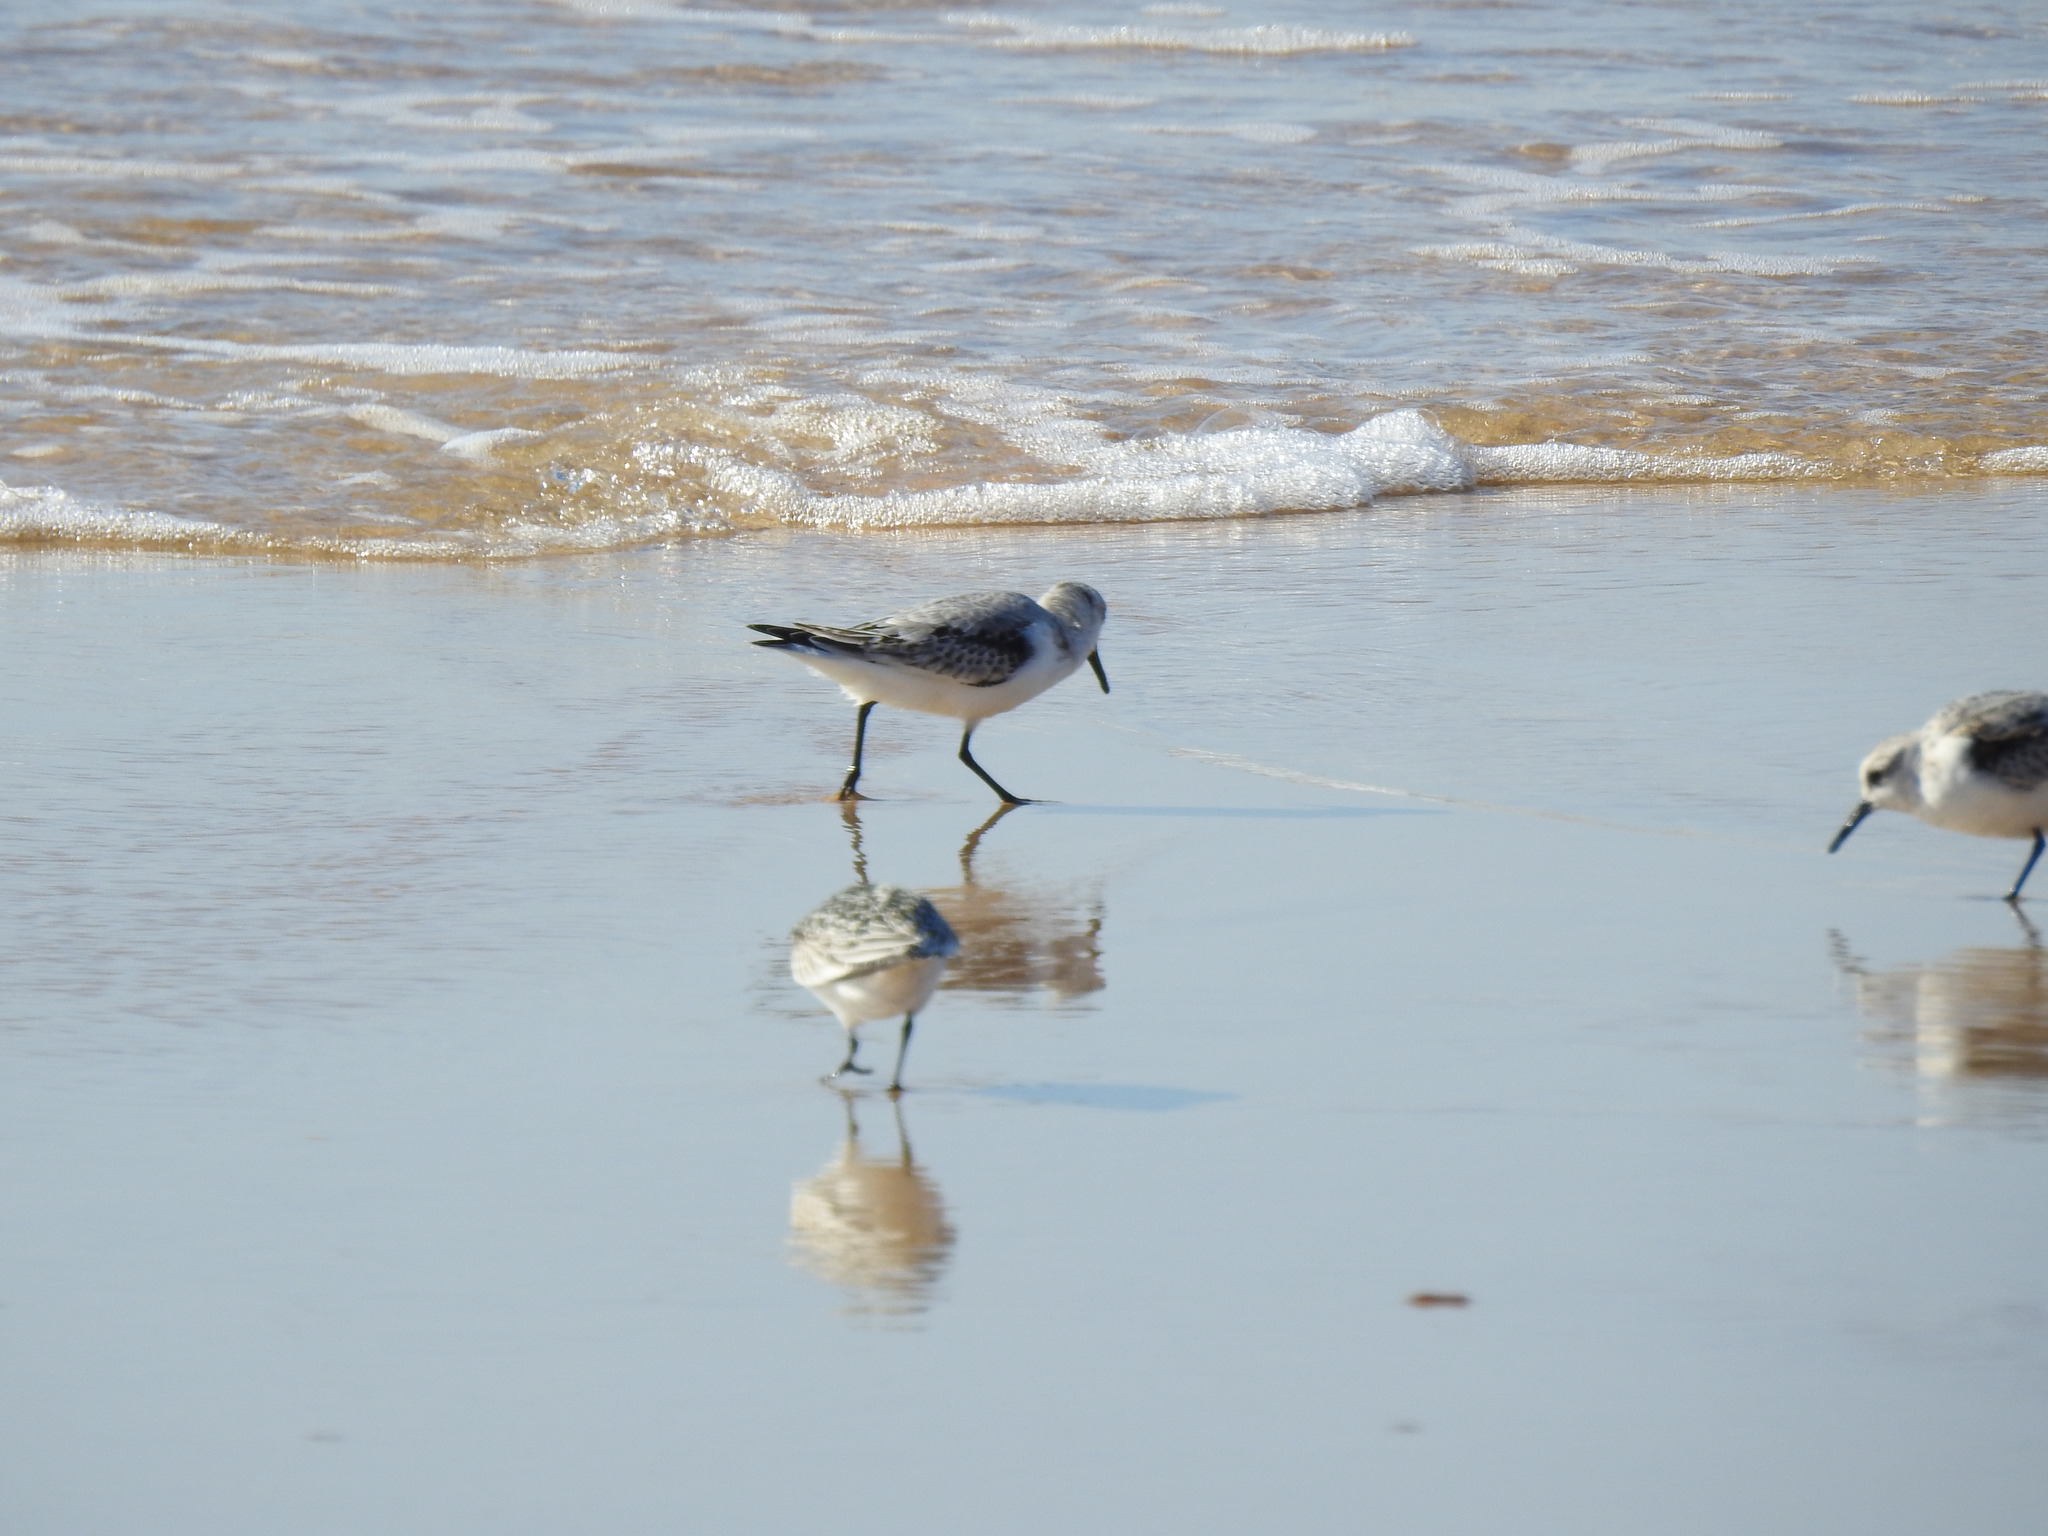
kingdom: Animalia
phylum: Chordata
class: Aves
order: Charadriiformes
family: Scolopacidae
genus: Calidris
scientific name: Calidris alba
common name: Sanderling
